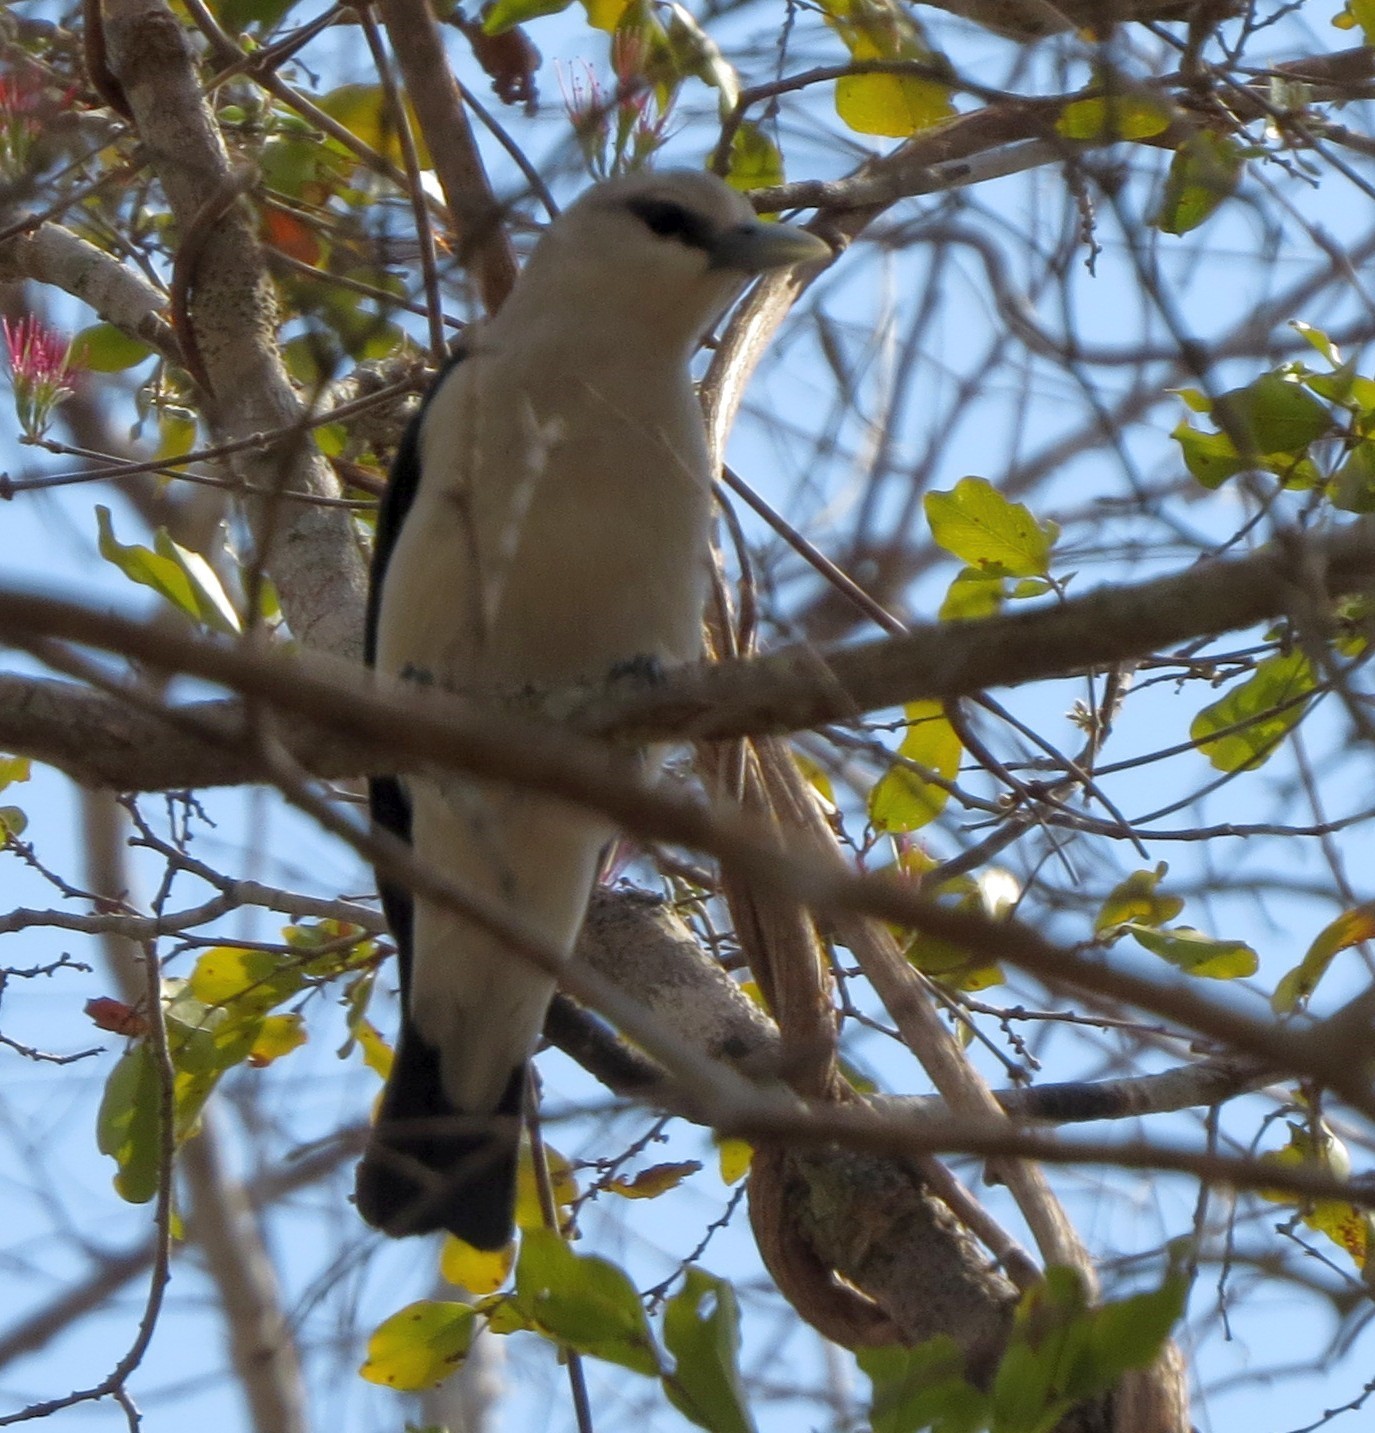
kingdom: Animalia
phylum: Chordata
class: Aves
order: Passeriformes
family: Vangidae
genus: Artamella
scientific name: Artamella viridis
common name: White-headed vanga
